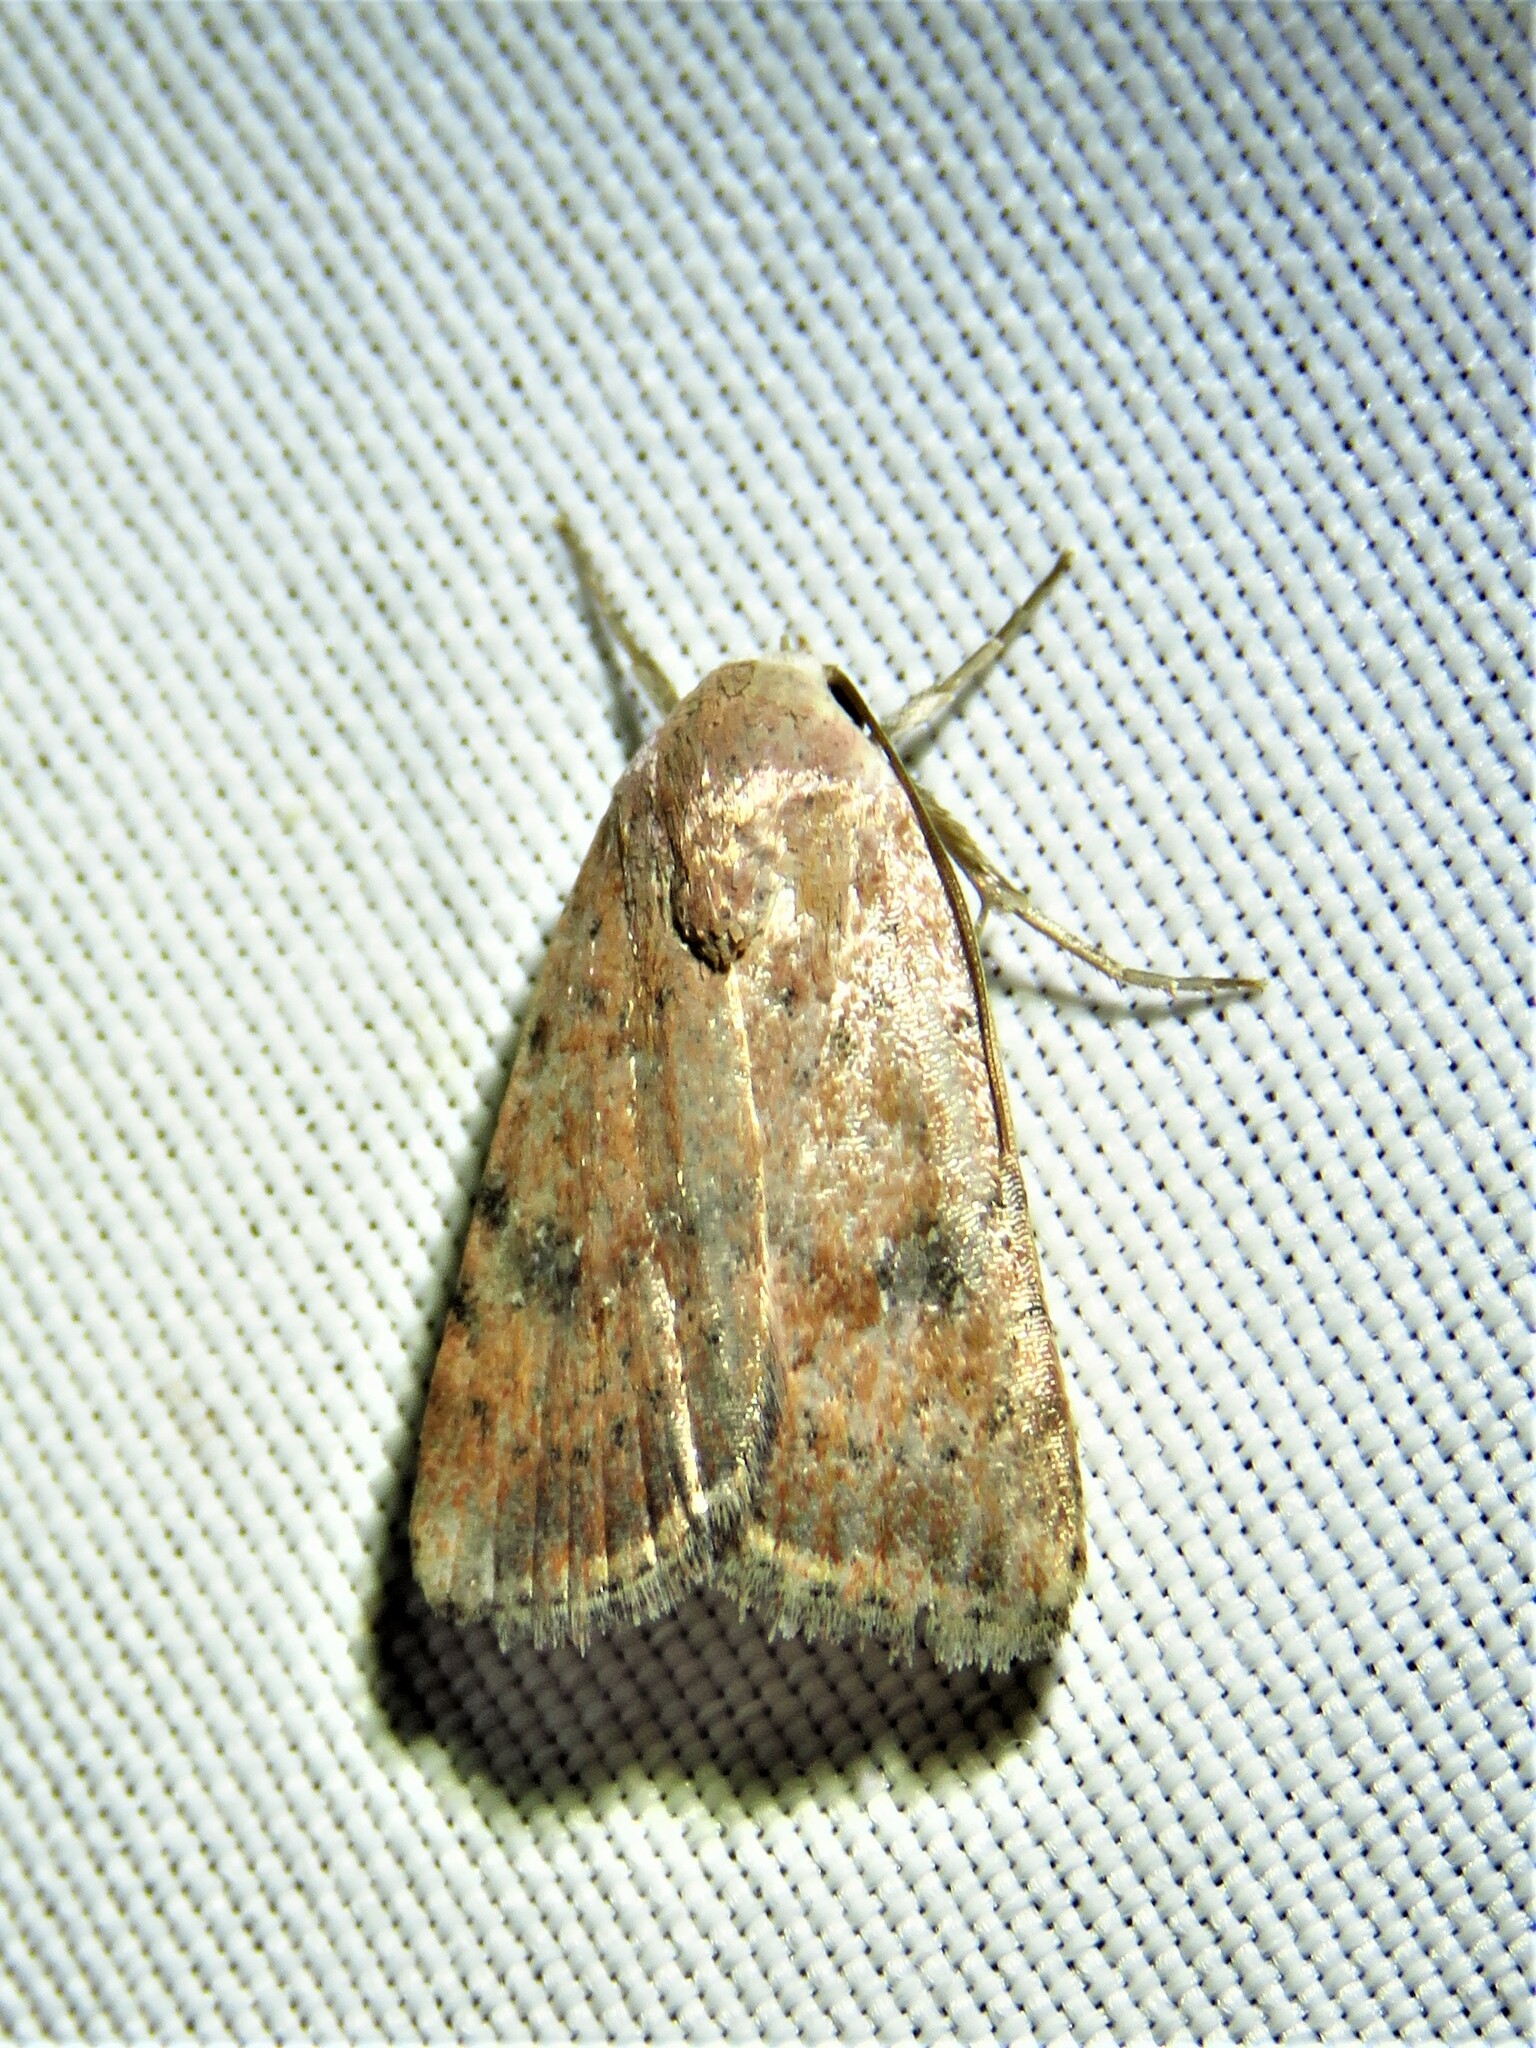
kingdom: Animalia
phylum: Arthropoda
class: Insecta
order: Lepidoptera
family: Noctuidae
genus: Micrathetis
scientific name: Micrathetis triplex
